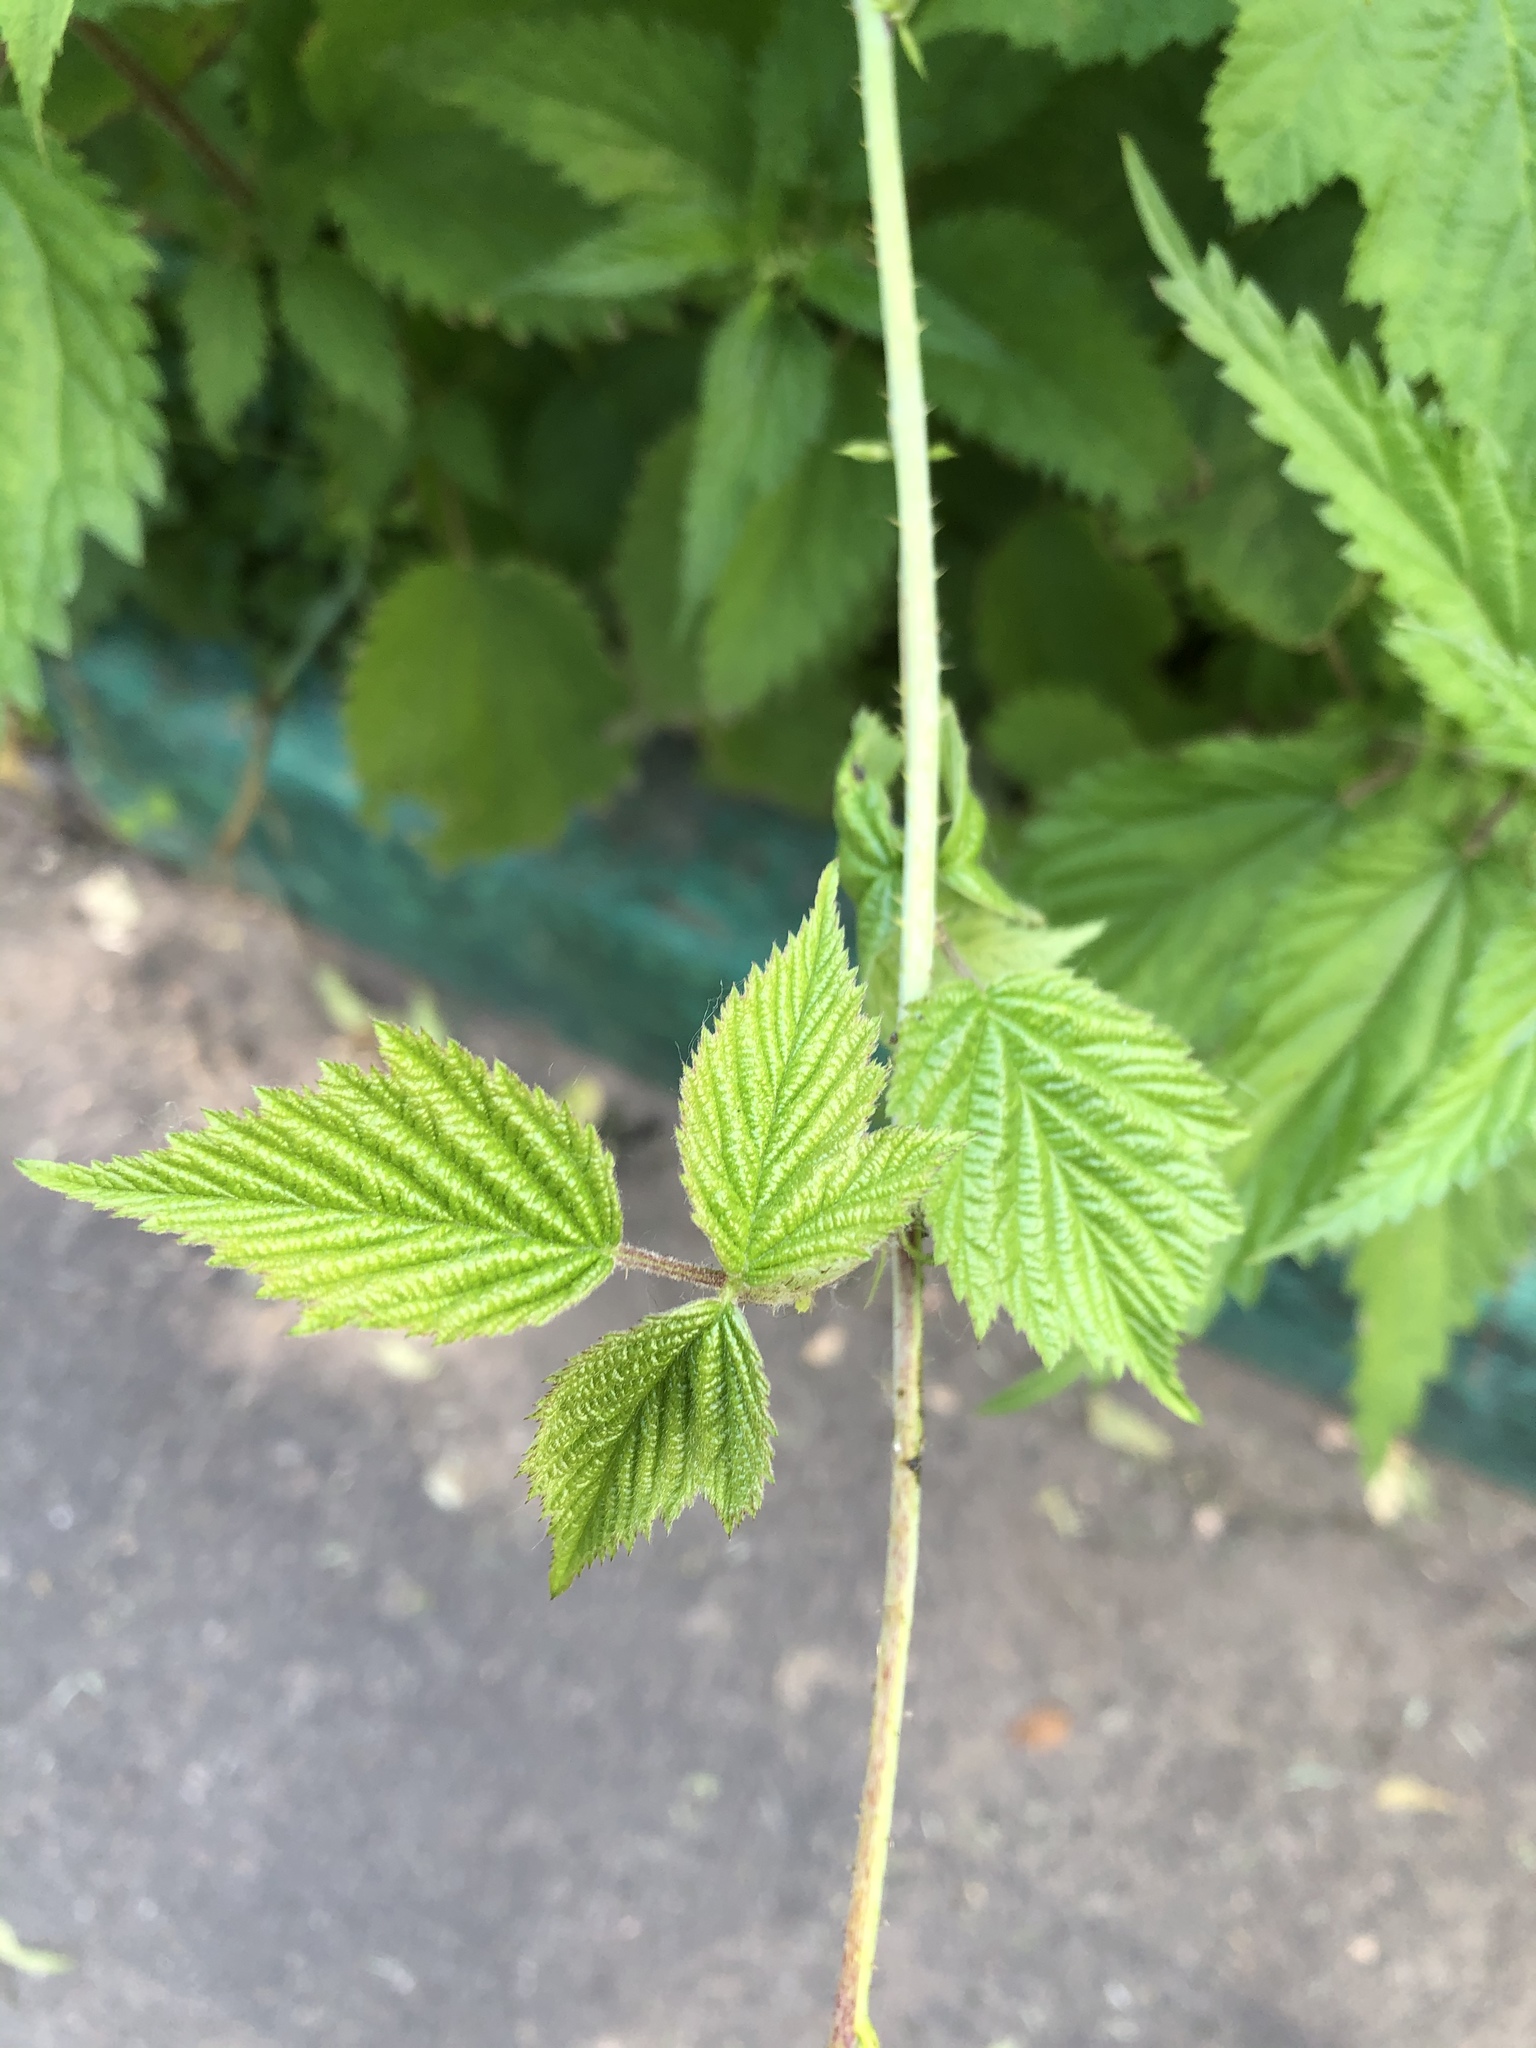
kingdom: Plantae
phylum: Tracheophyta
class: Magnoliopsida
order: Rosales
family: Rosaceae
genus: Rubus
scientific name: Rubus caesius
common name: Dewberry
